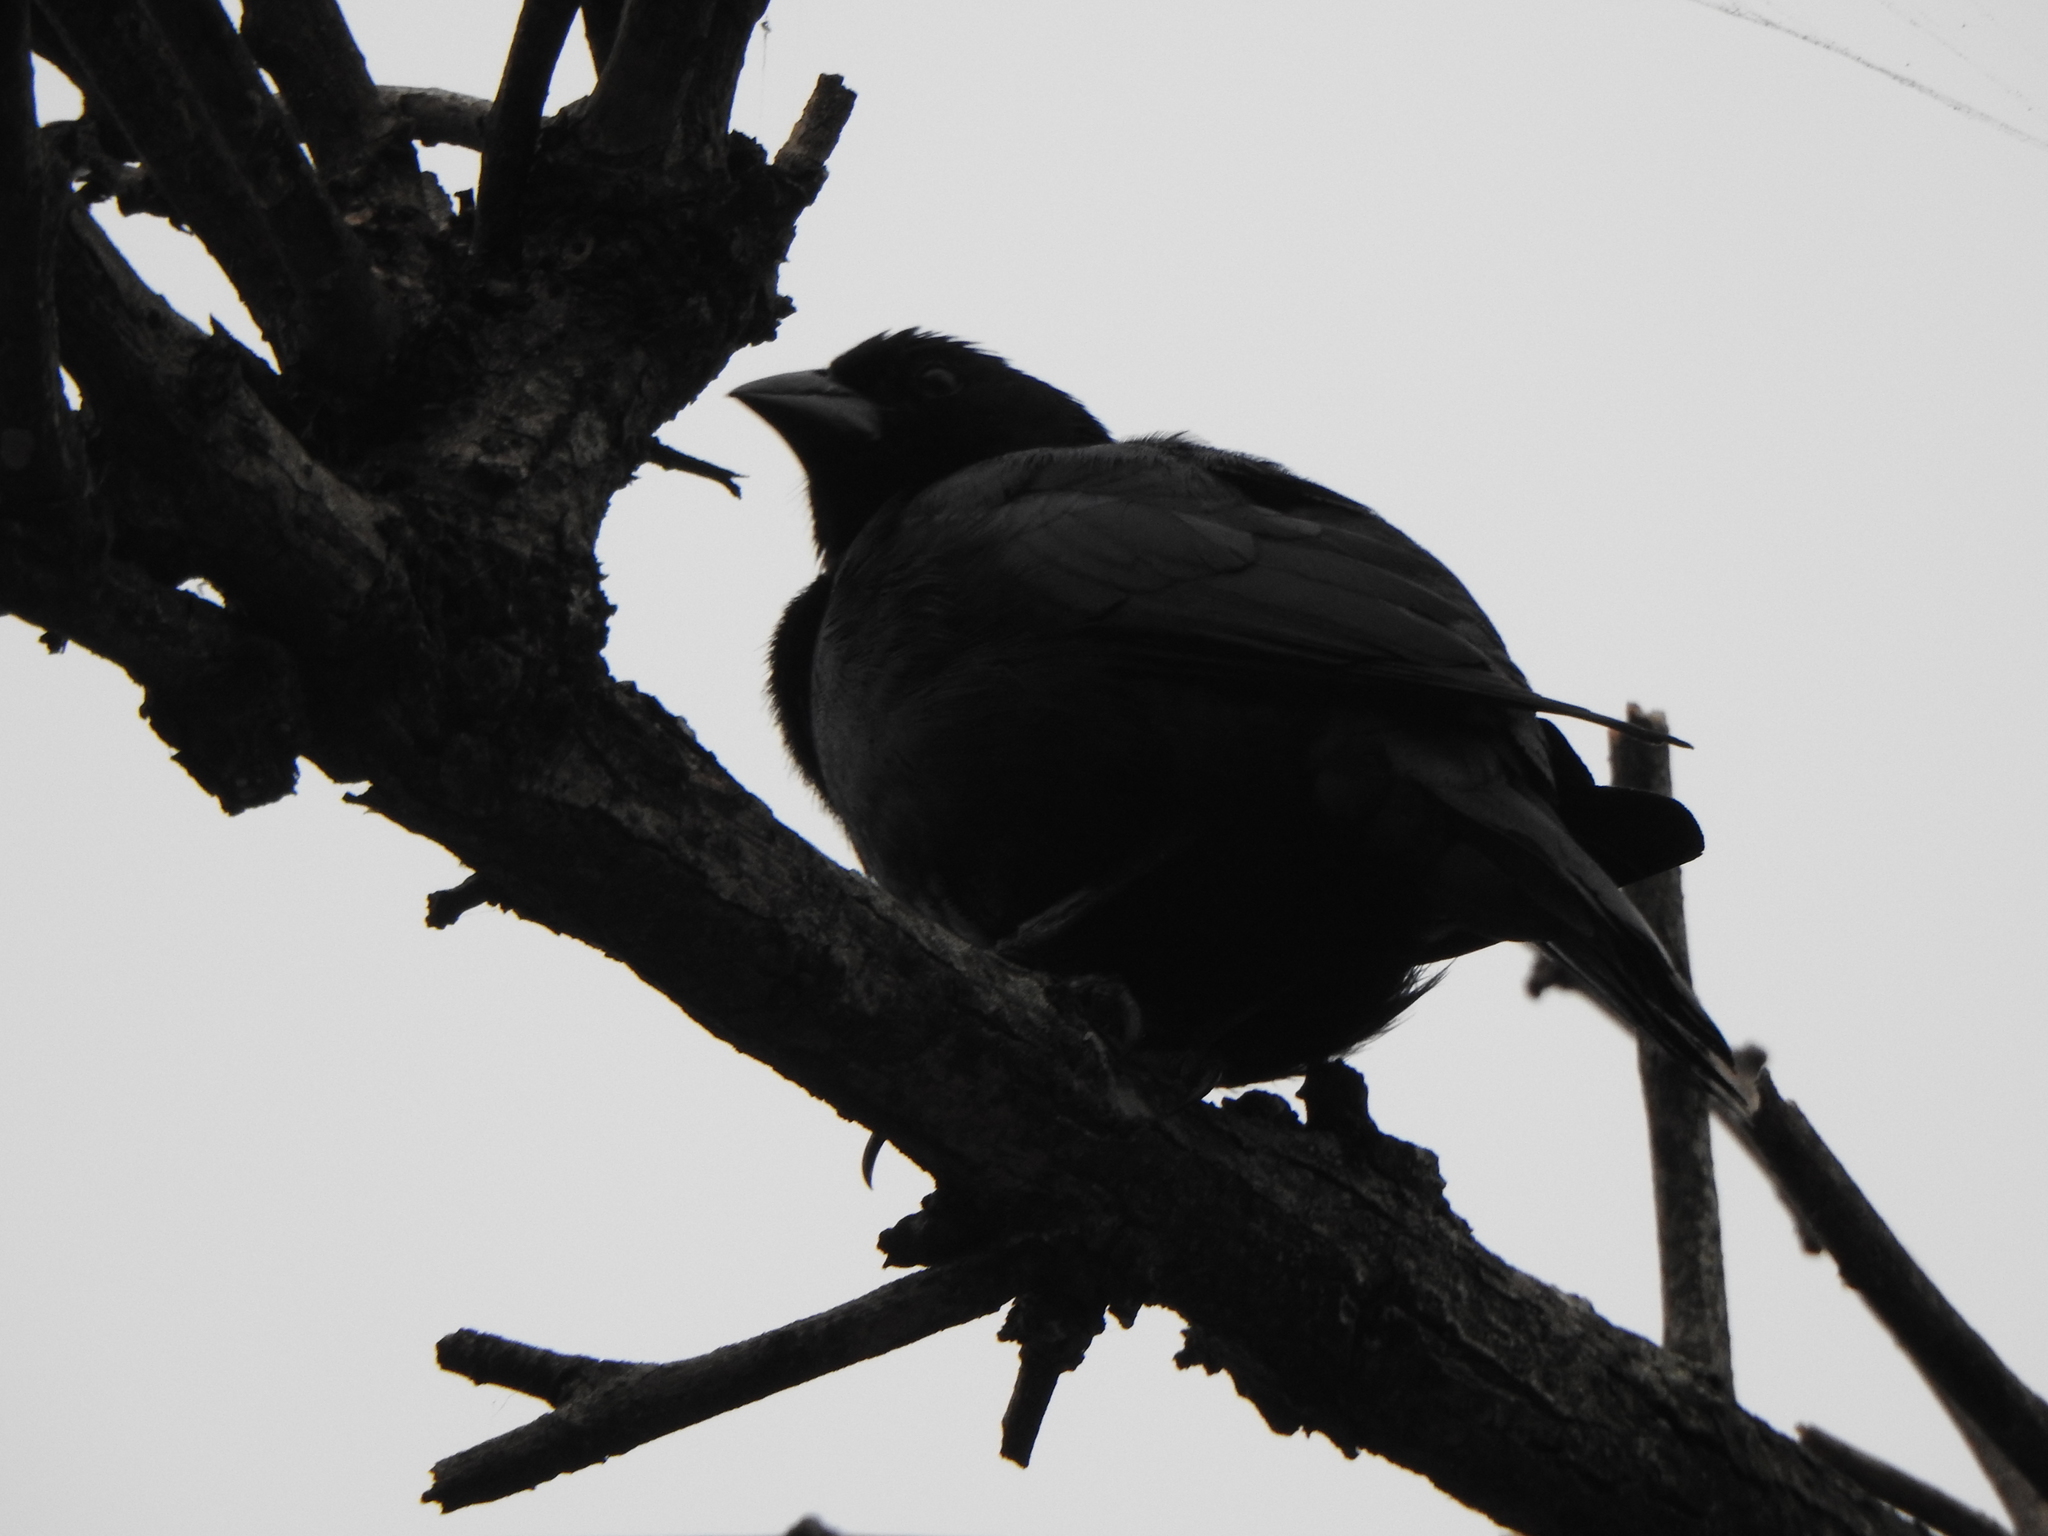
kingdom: Animalia
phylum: Chordata
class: Aves
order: Passeriformes
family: Icteridae
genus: Molothrus
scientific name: Molothrus rufoaxillaris
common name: Screaming cowbird
